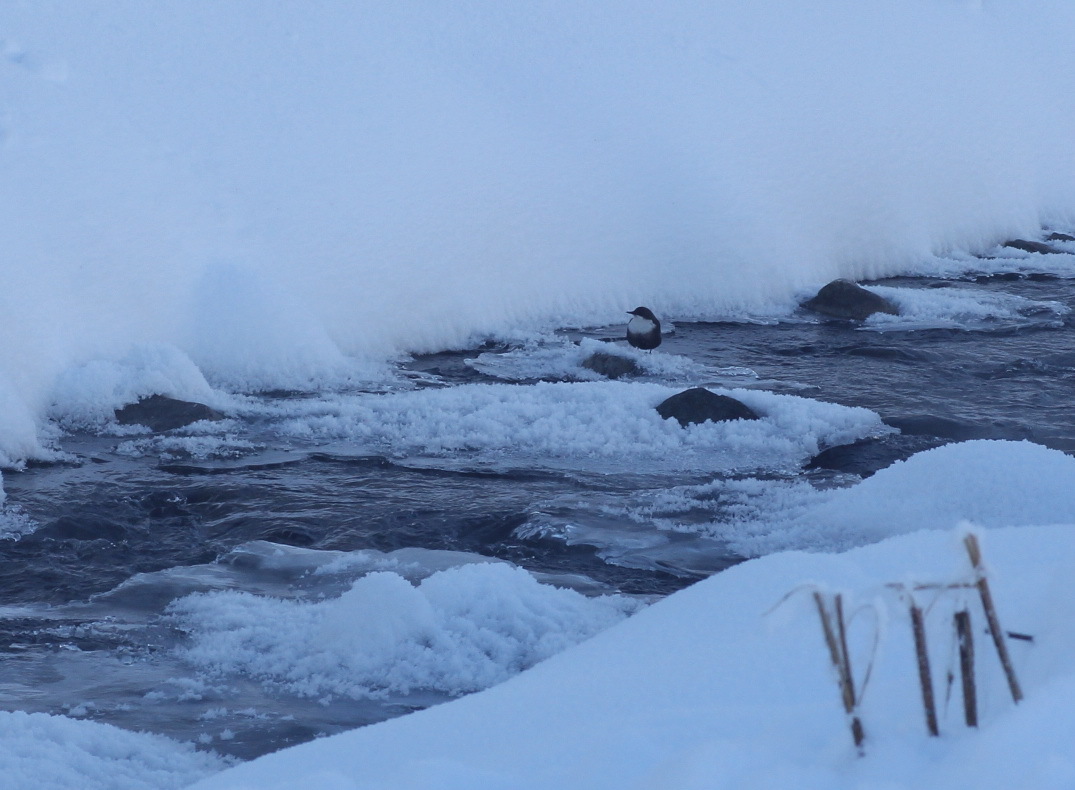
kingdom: Animalia
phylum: Chordata
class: Aves
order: Passeriformes
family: Cinclidae
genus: Cinclus
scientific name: Cinclus cinclus
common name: White-throated dipper
